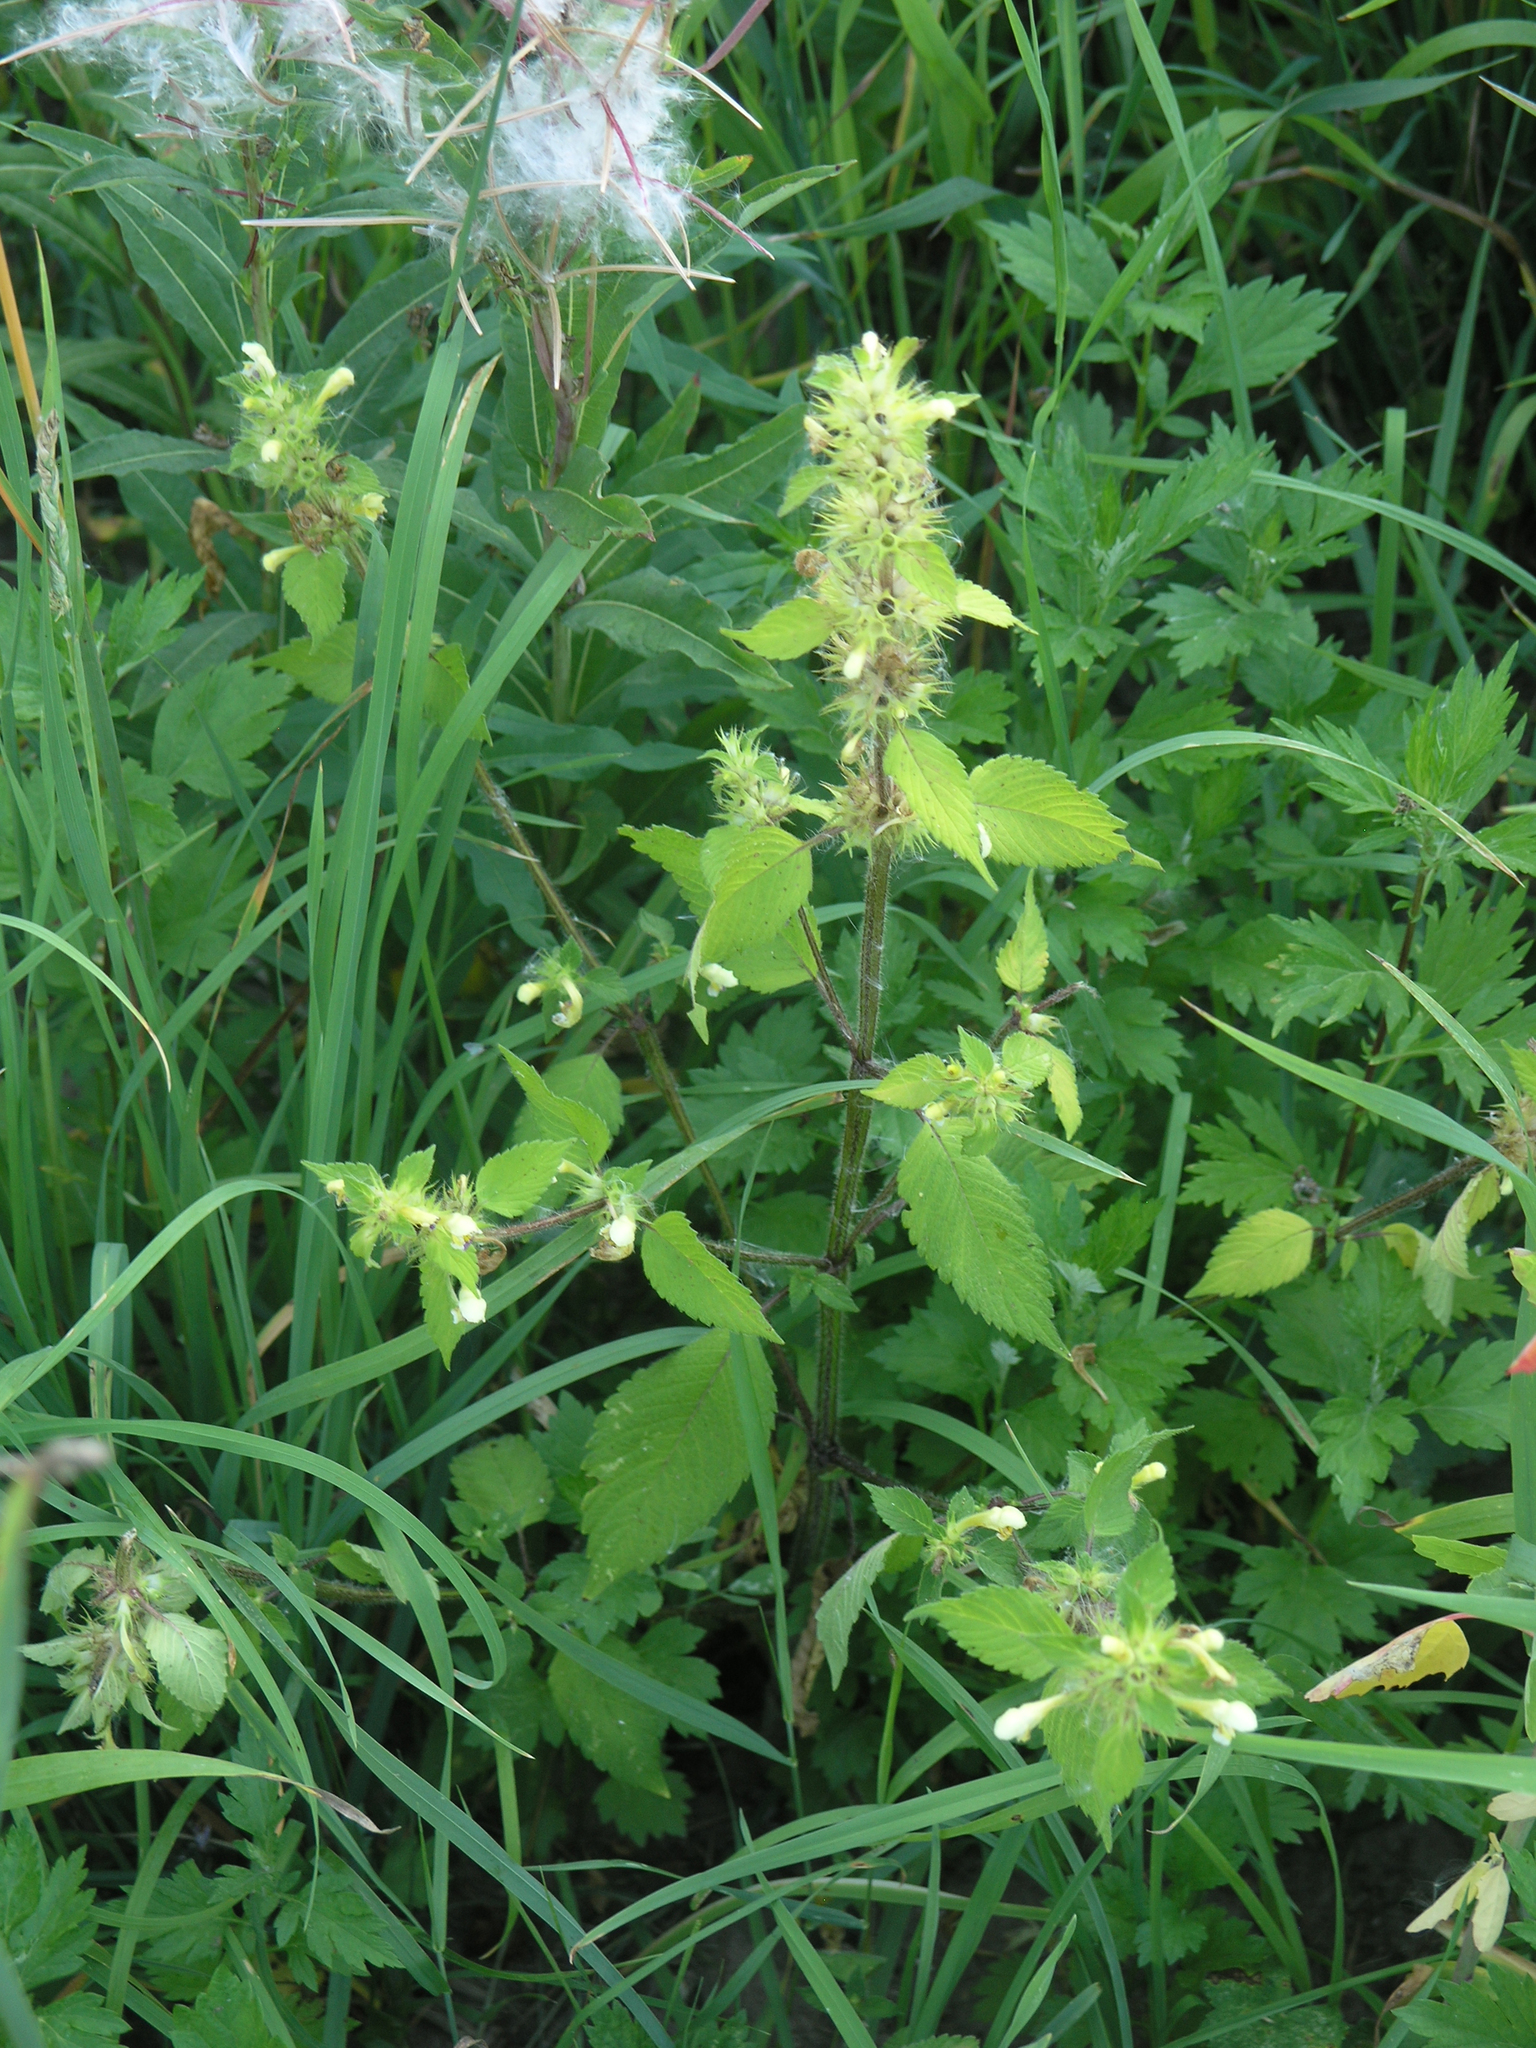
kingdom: Plantae
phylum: Tracheophyta
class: Magnoliopsida
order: Lamiales
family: Lamiaceae
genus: Galeopsis
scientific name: Galeopsis speciosa
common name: Large-flowered hemp-nettle
